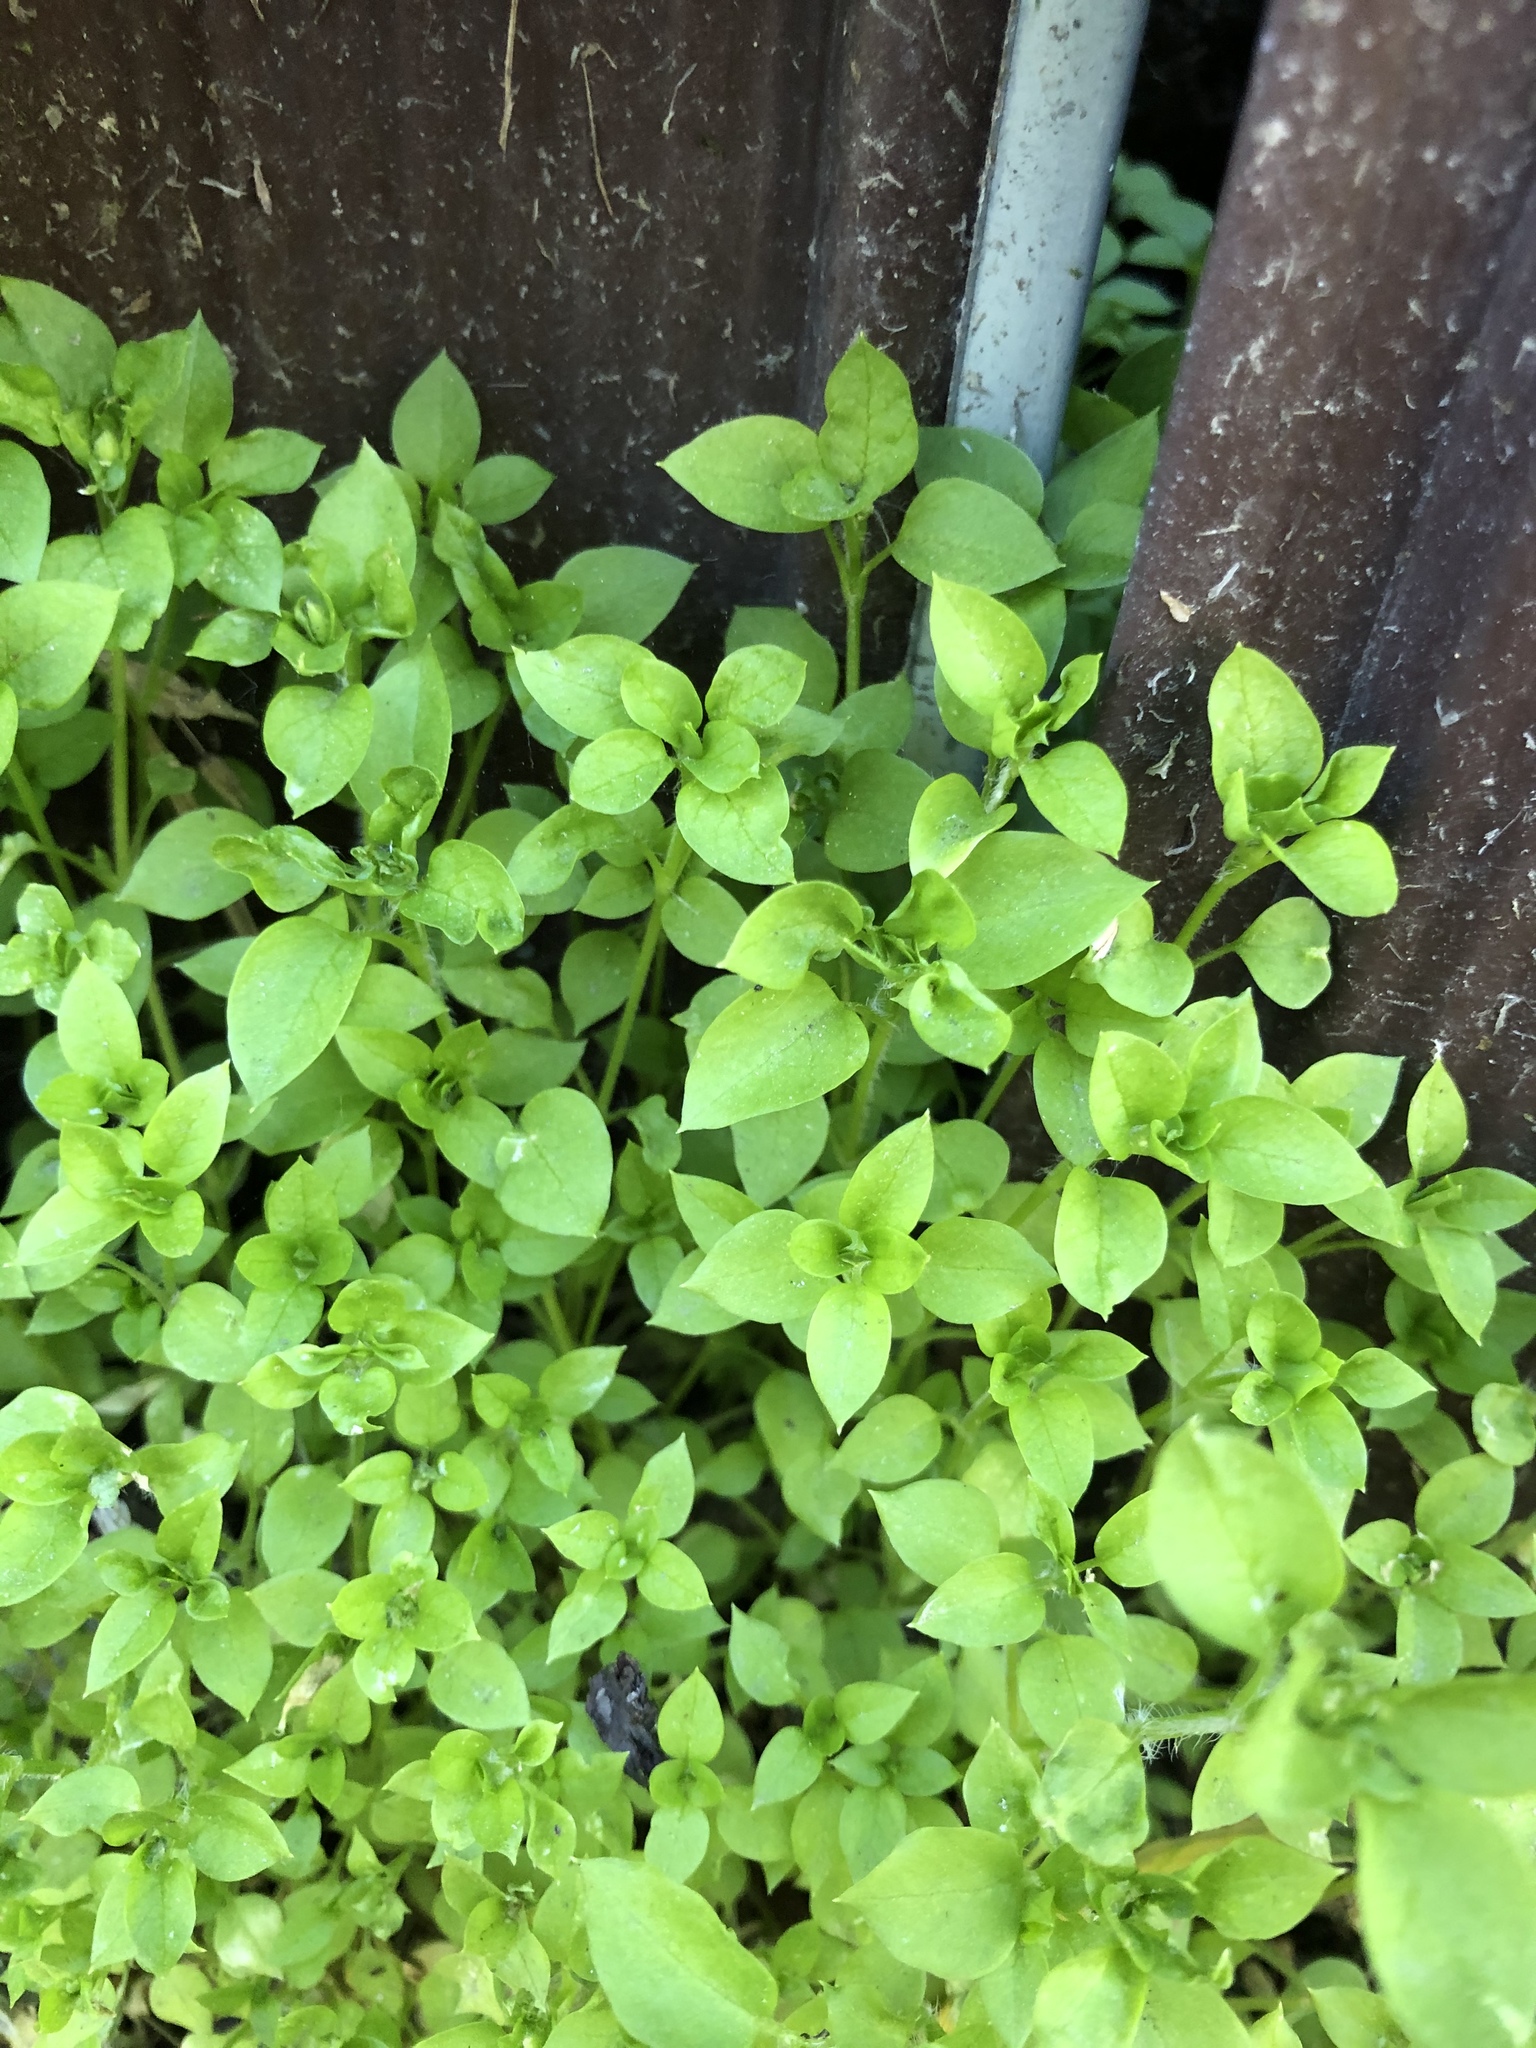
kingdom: Plantae
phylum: Tracheophyta
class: Magnoliopsida
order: Caryophyllales
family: Caryophyllaceae
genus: Stellaria
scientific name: Stellaria media
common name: Common chickweed
